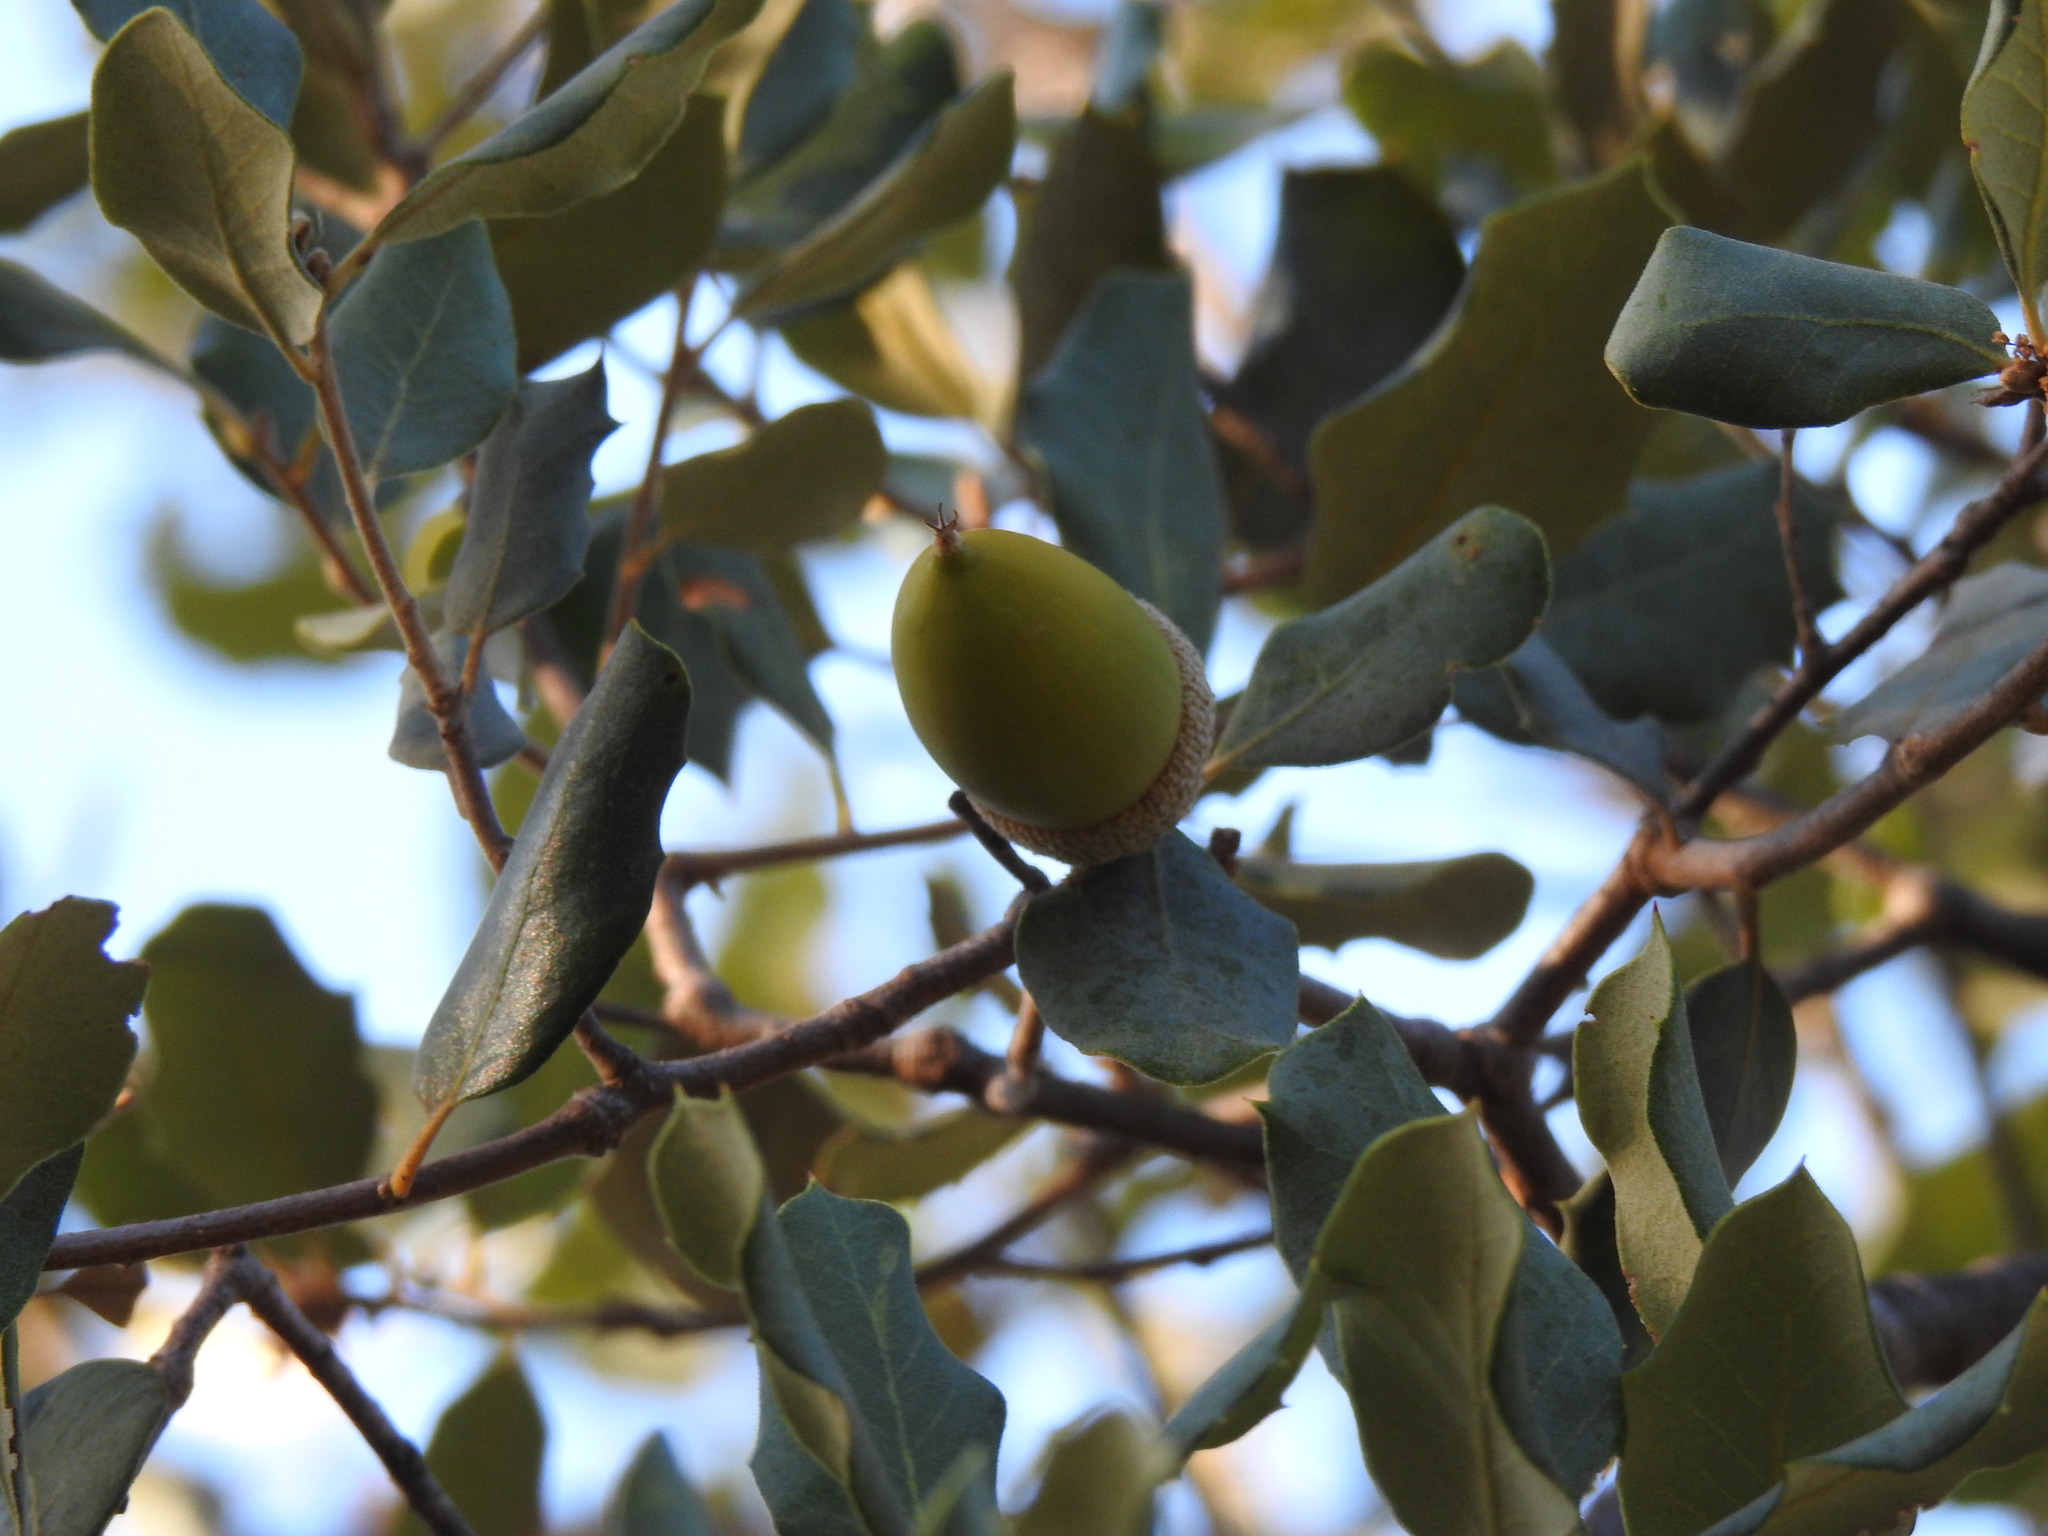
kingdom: Plantae
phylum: Tracheophyta
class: Magnoliopsida
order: Fagales
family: Fagaceae
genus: Quercus
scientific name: Quercus rotundifolia
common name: Holm oak
